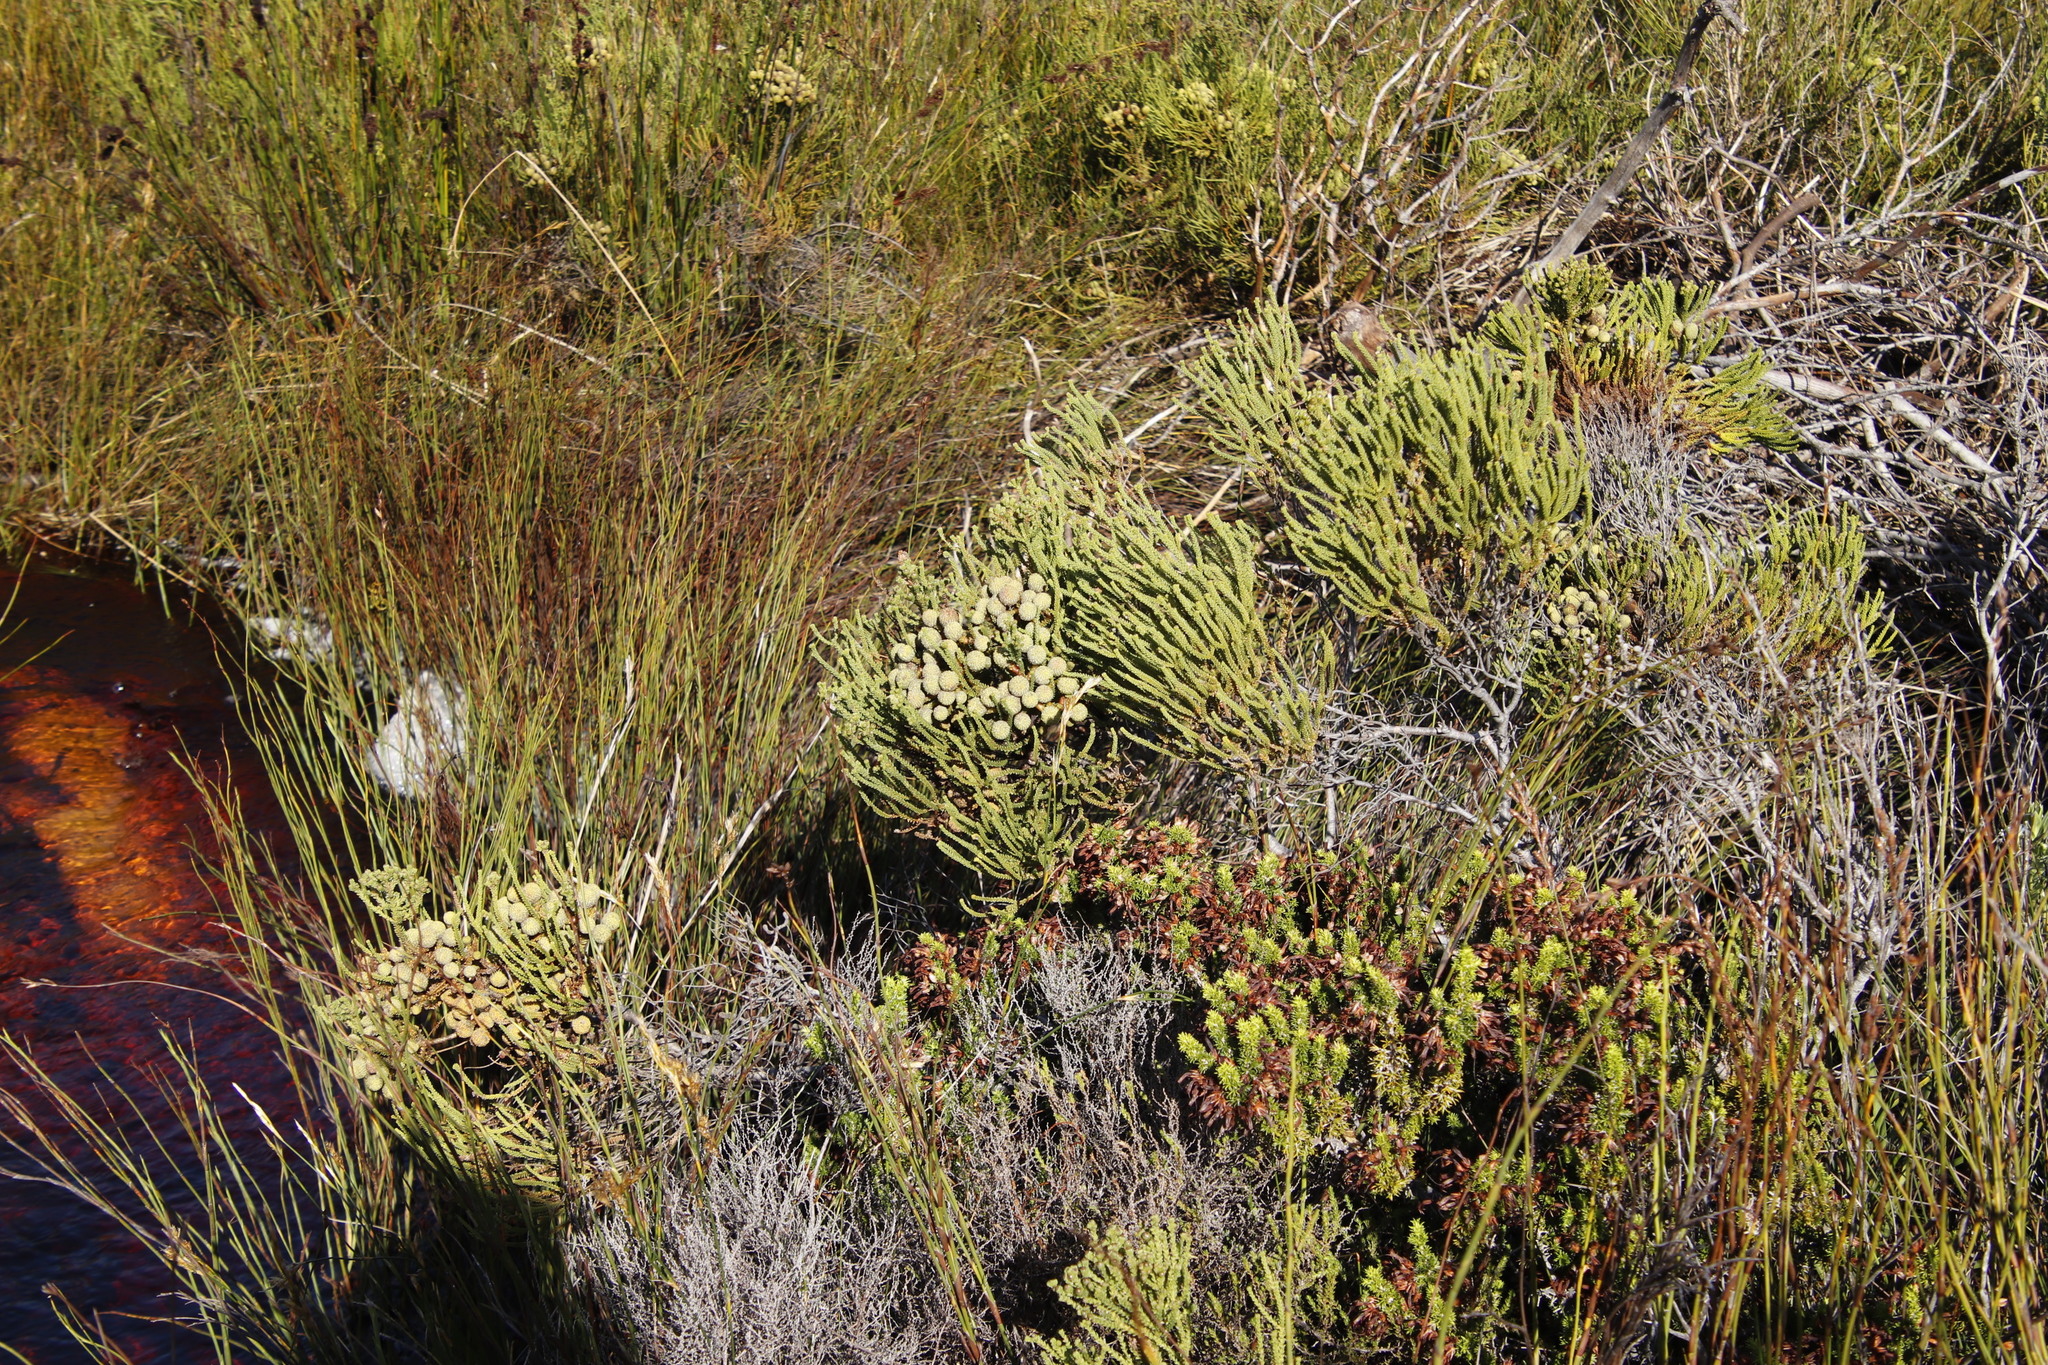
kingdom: Plantae
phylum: Tracheophyta
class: Magnoliopsida
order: Bruniales
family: Bruniaceae
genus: Berzelia
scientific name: Berzelia abrotanoides
